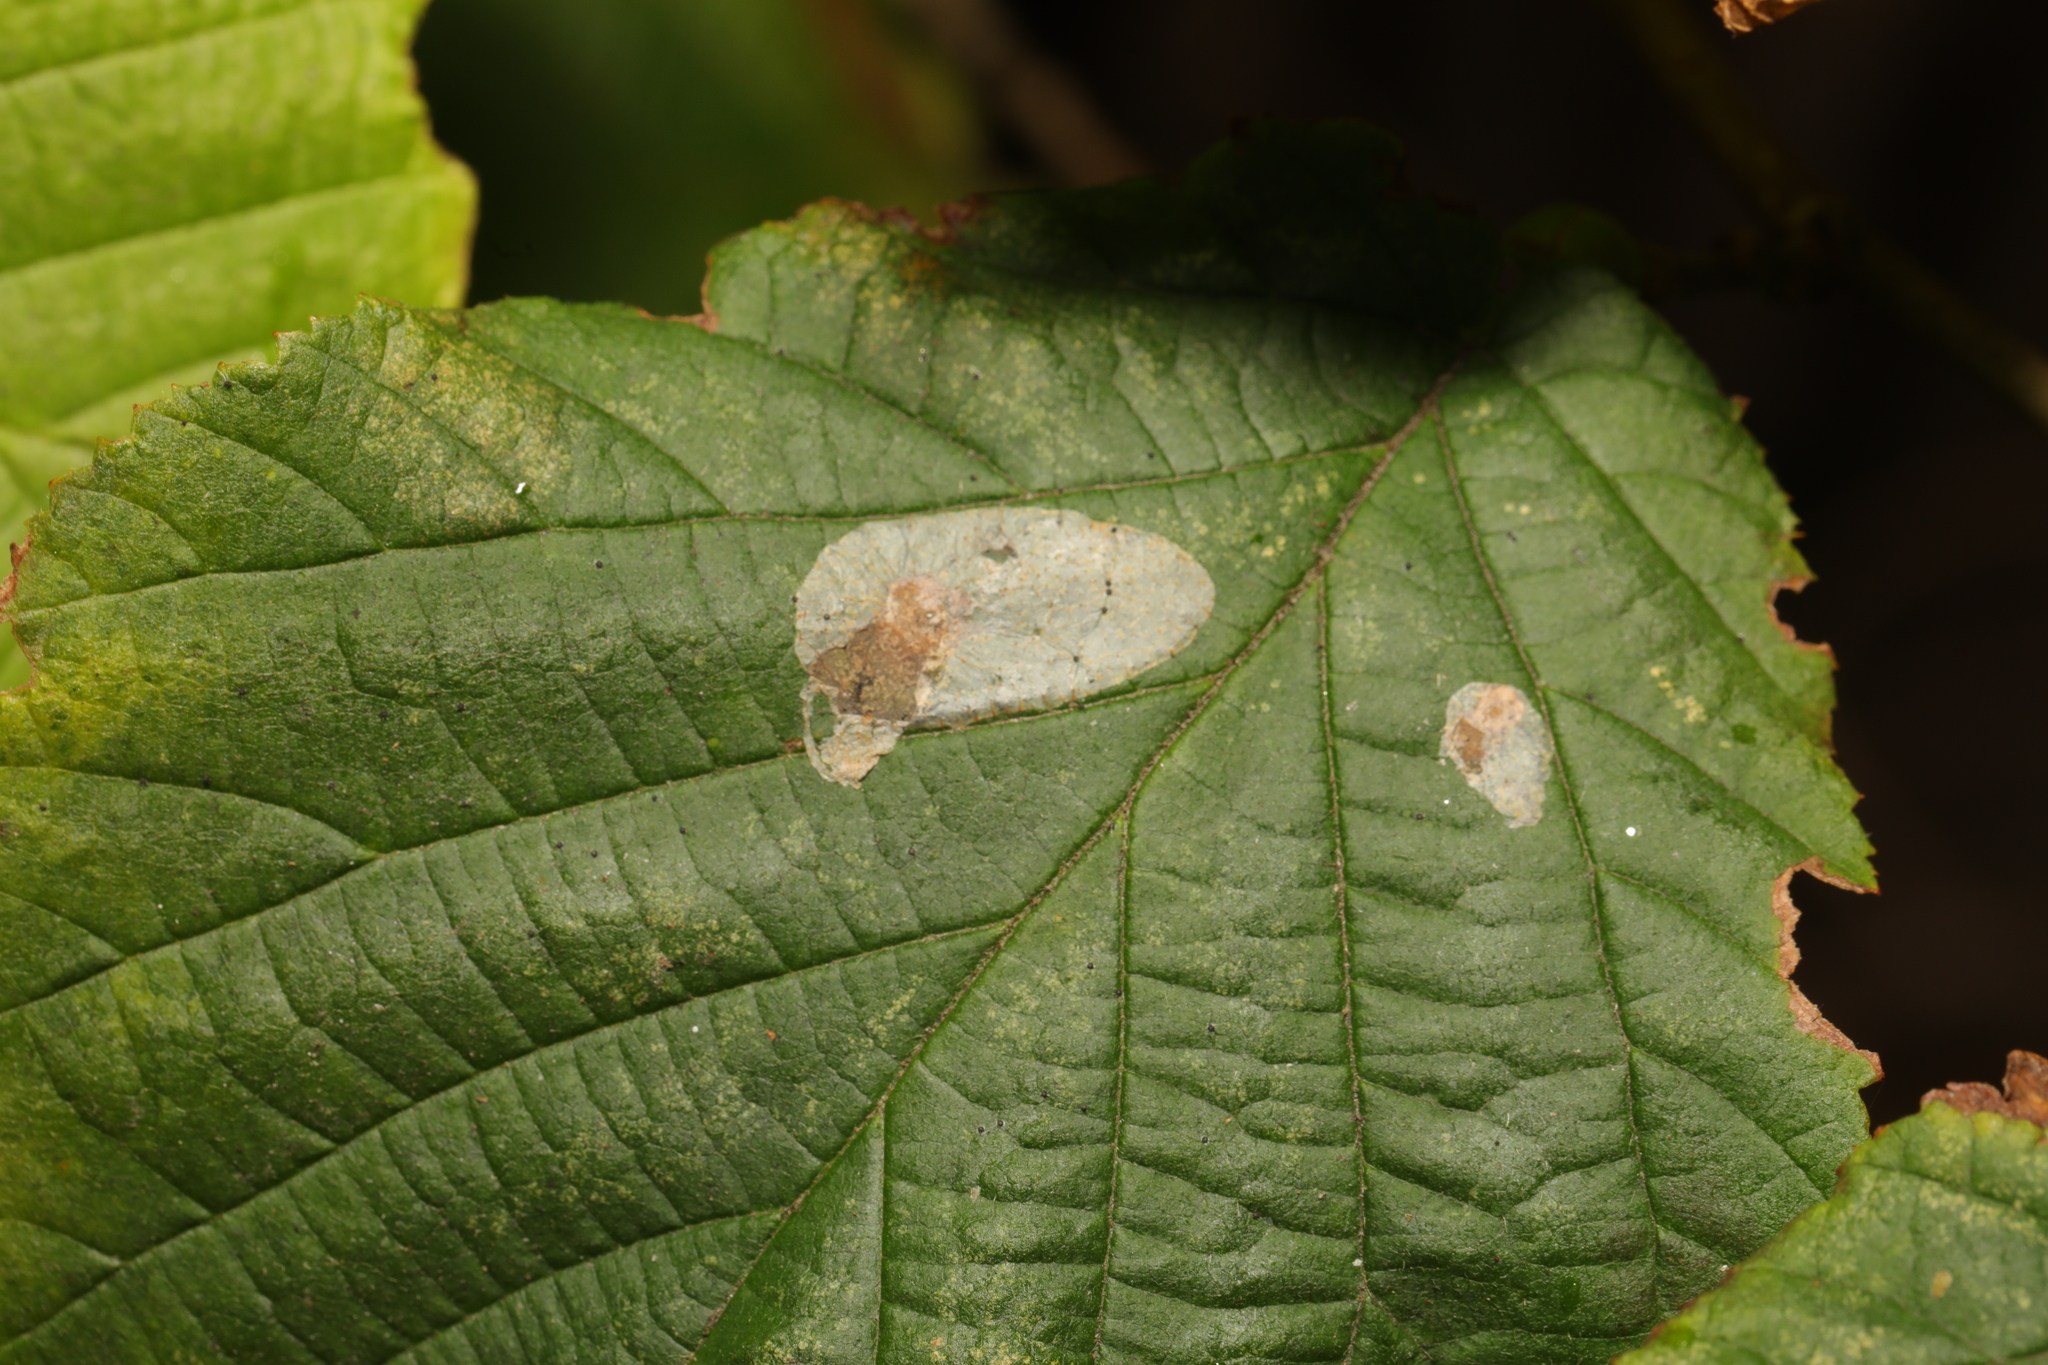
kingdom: Animalia
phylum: Arthropoda
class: Insecta
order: Lepidoptera
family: Gracillariidae
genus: Phyllonorycter
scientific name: Phyllonorycter coryli
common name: Nut-leaf blister moth
